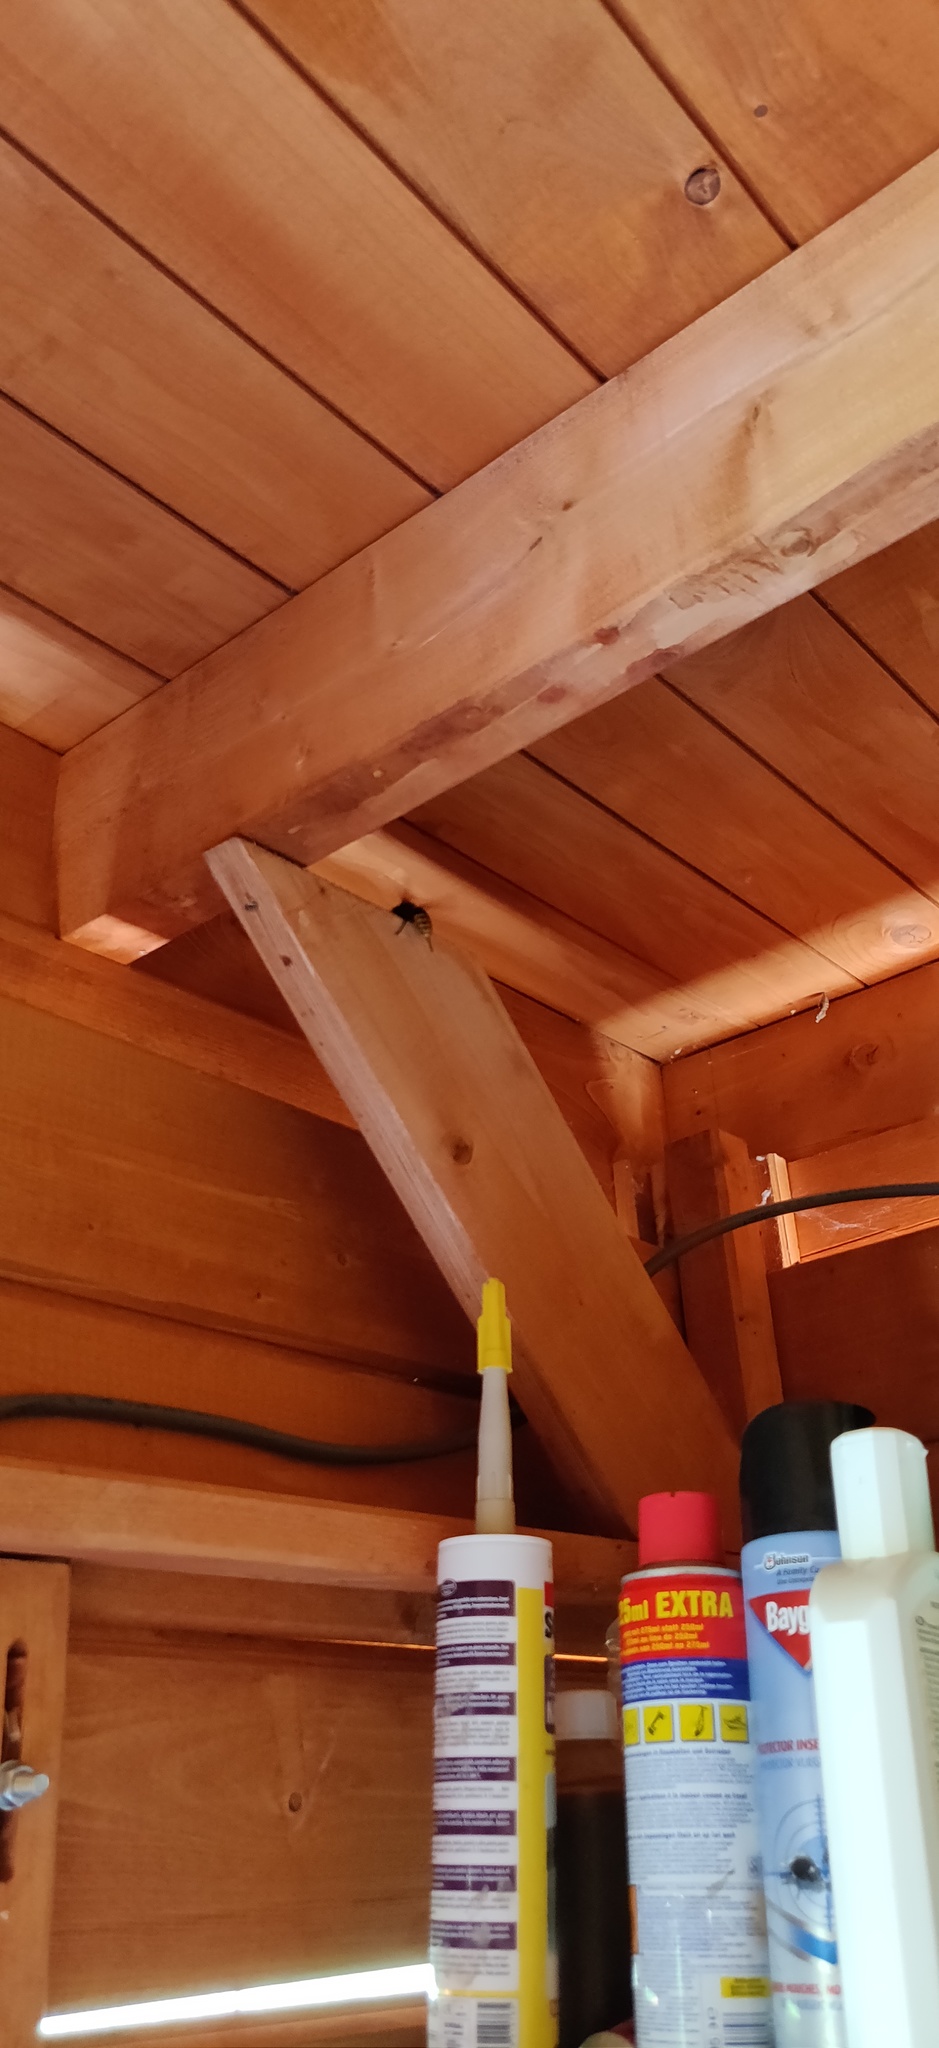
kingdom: Animalia
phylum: Arthropoda
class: Insecta
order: Hymenoptera
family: Vespidae
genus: Vespa
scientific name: Vespa crabro
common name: Hornet
